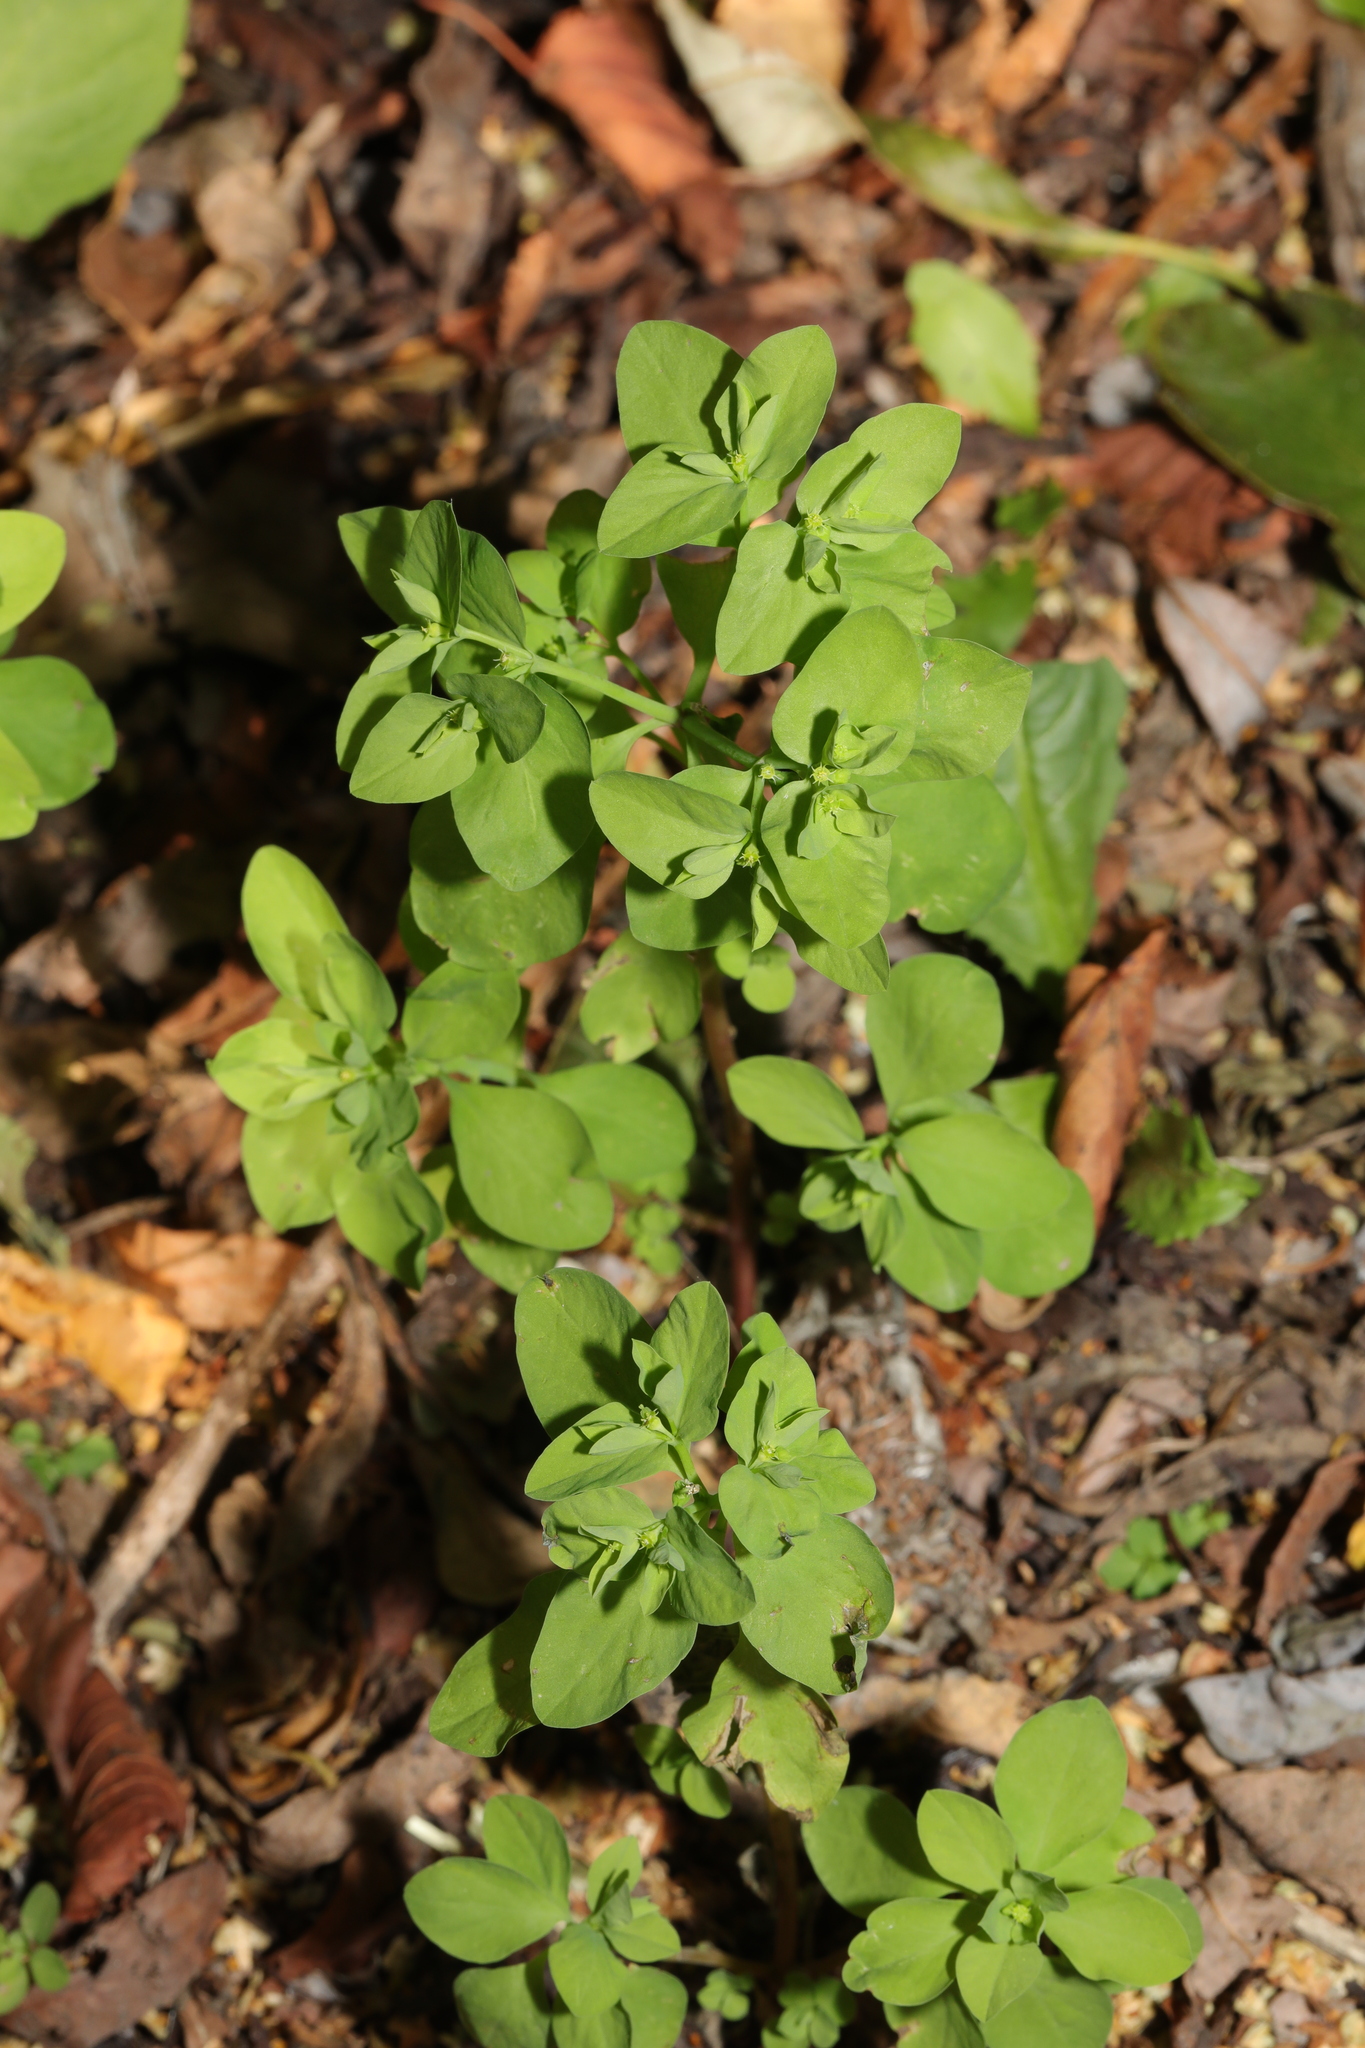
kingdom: Plantae
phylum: Tracheophyta
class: Magnoliopsida
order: Malpighiales
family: Euphorbiaceae
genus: Euphorbia
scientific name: Euphorbia peplus
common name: Petty spurge
